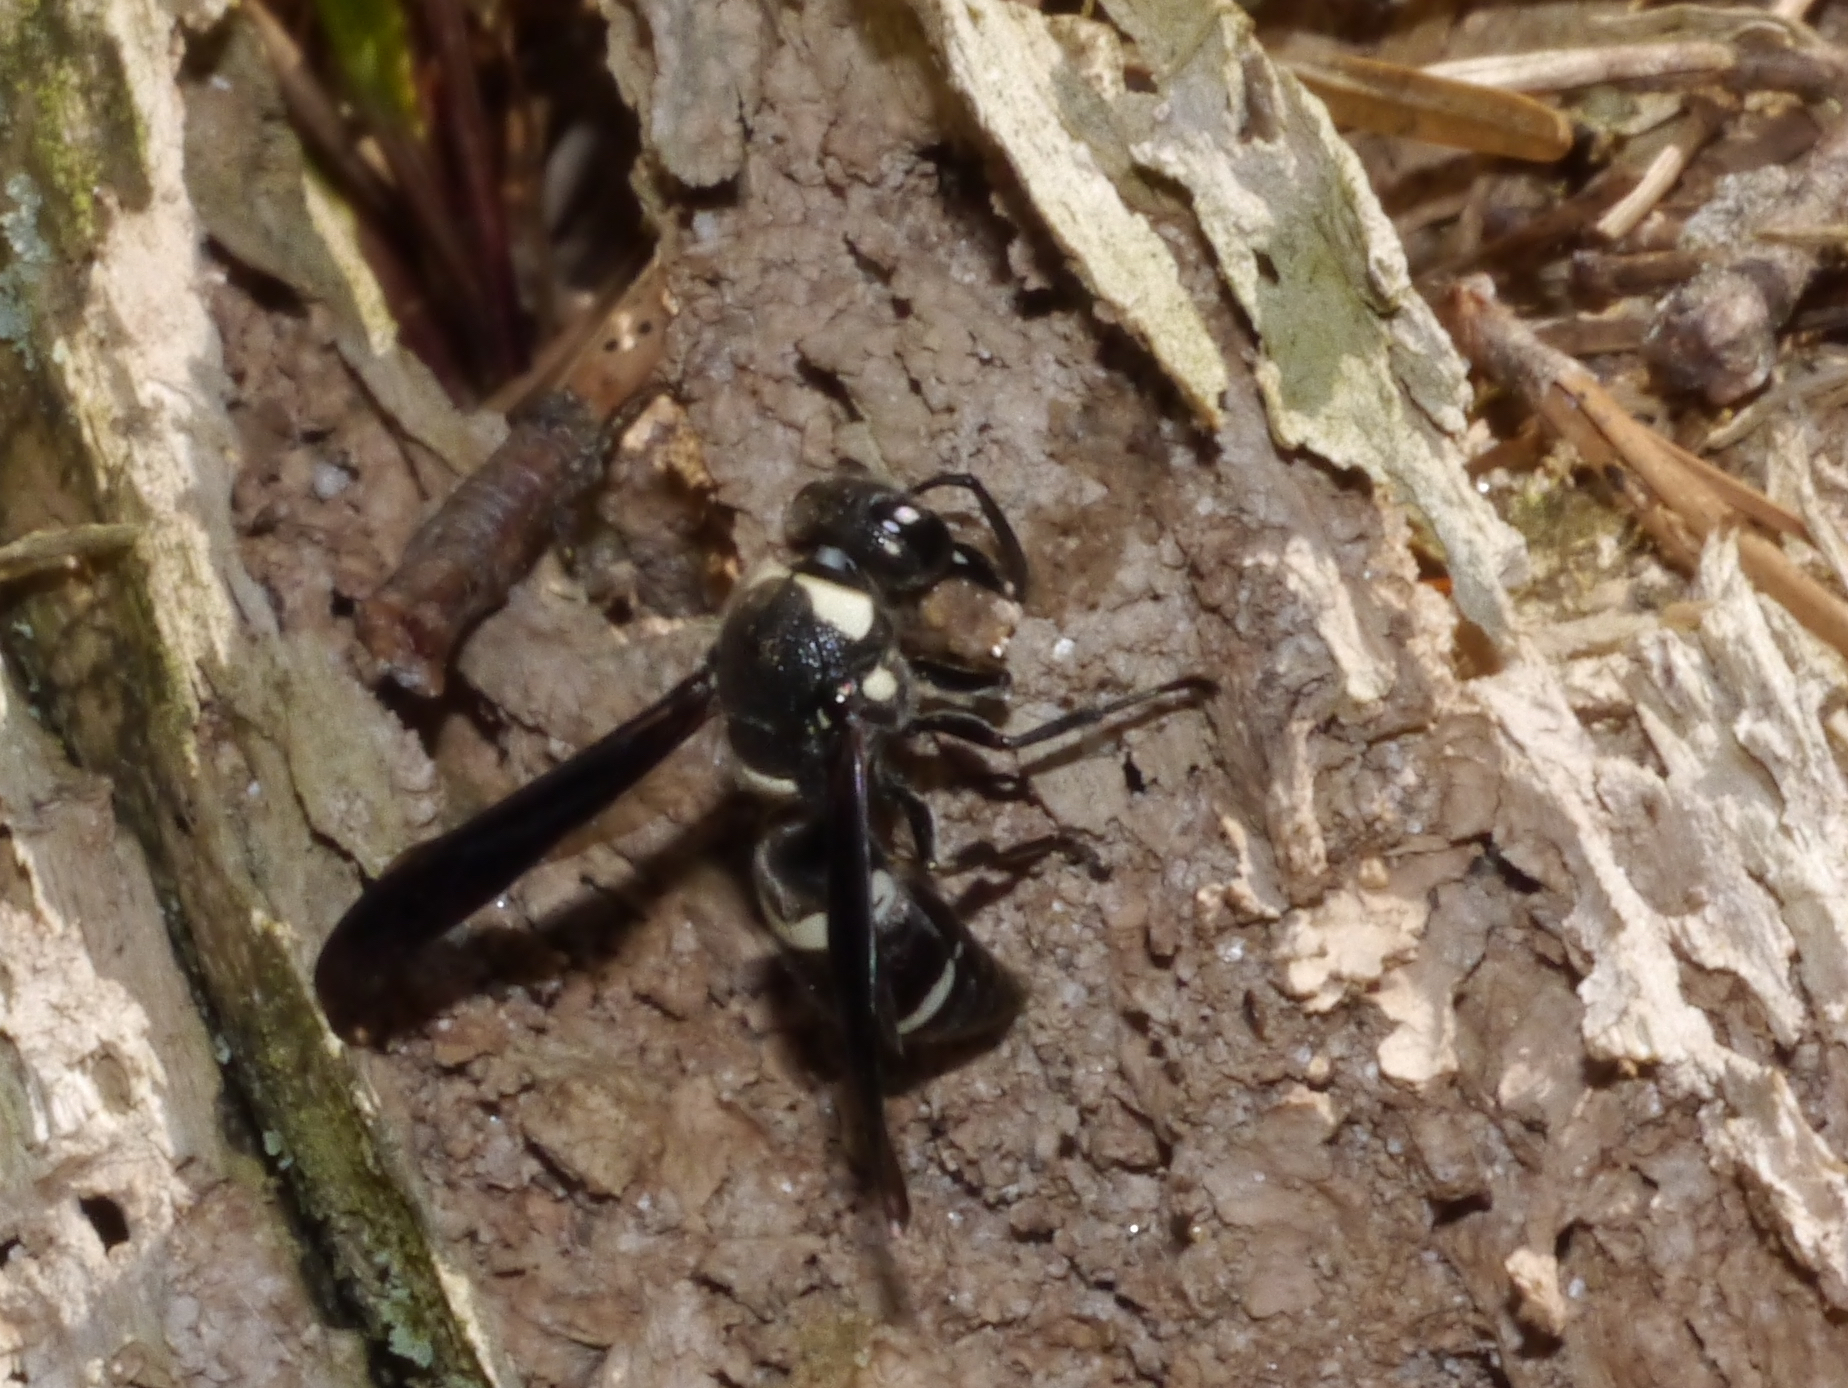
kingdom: Animalia
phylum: Arthropoda
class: Insecta
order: Hymenoptera
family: Eumenidae
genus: Euodynerus
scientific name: Euodynerus megaera
